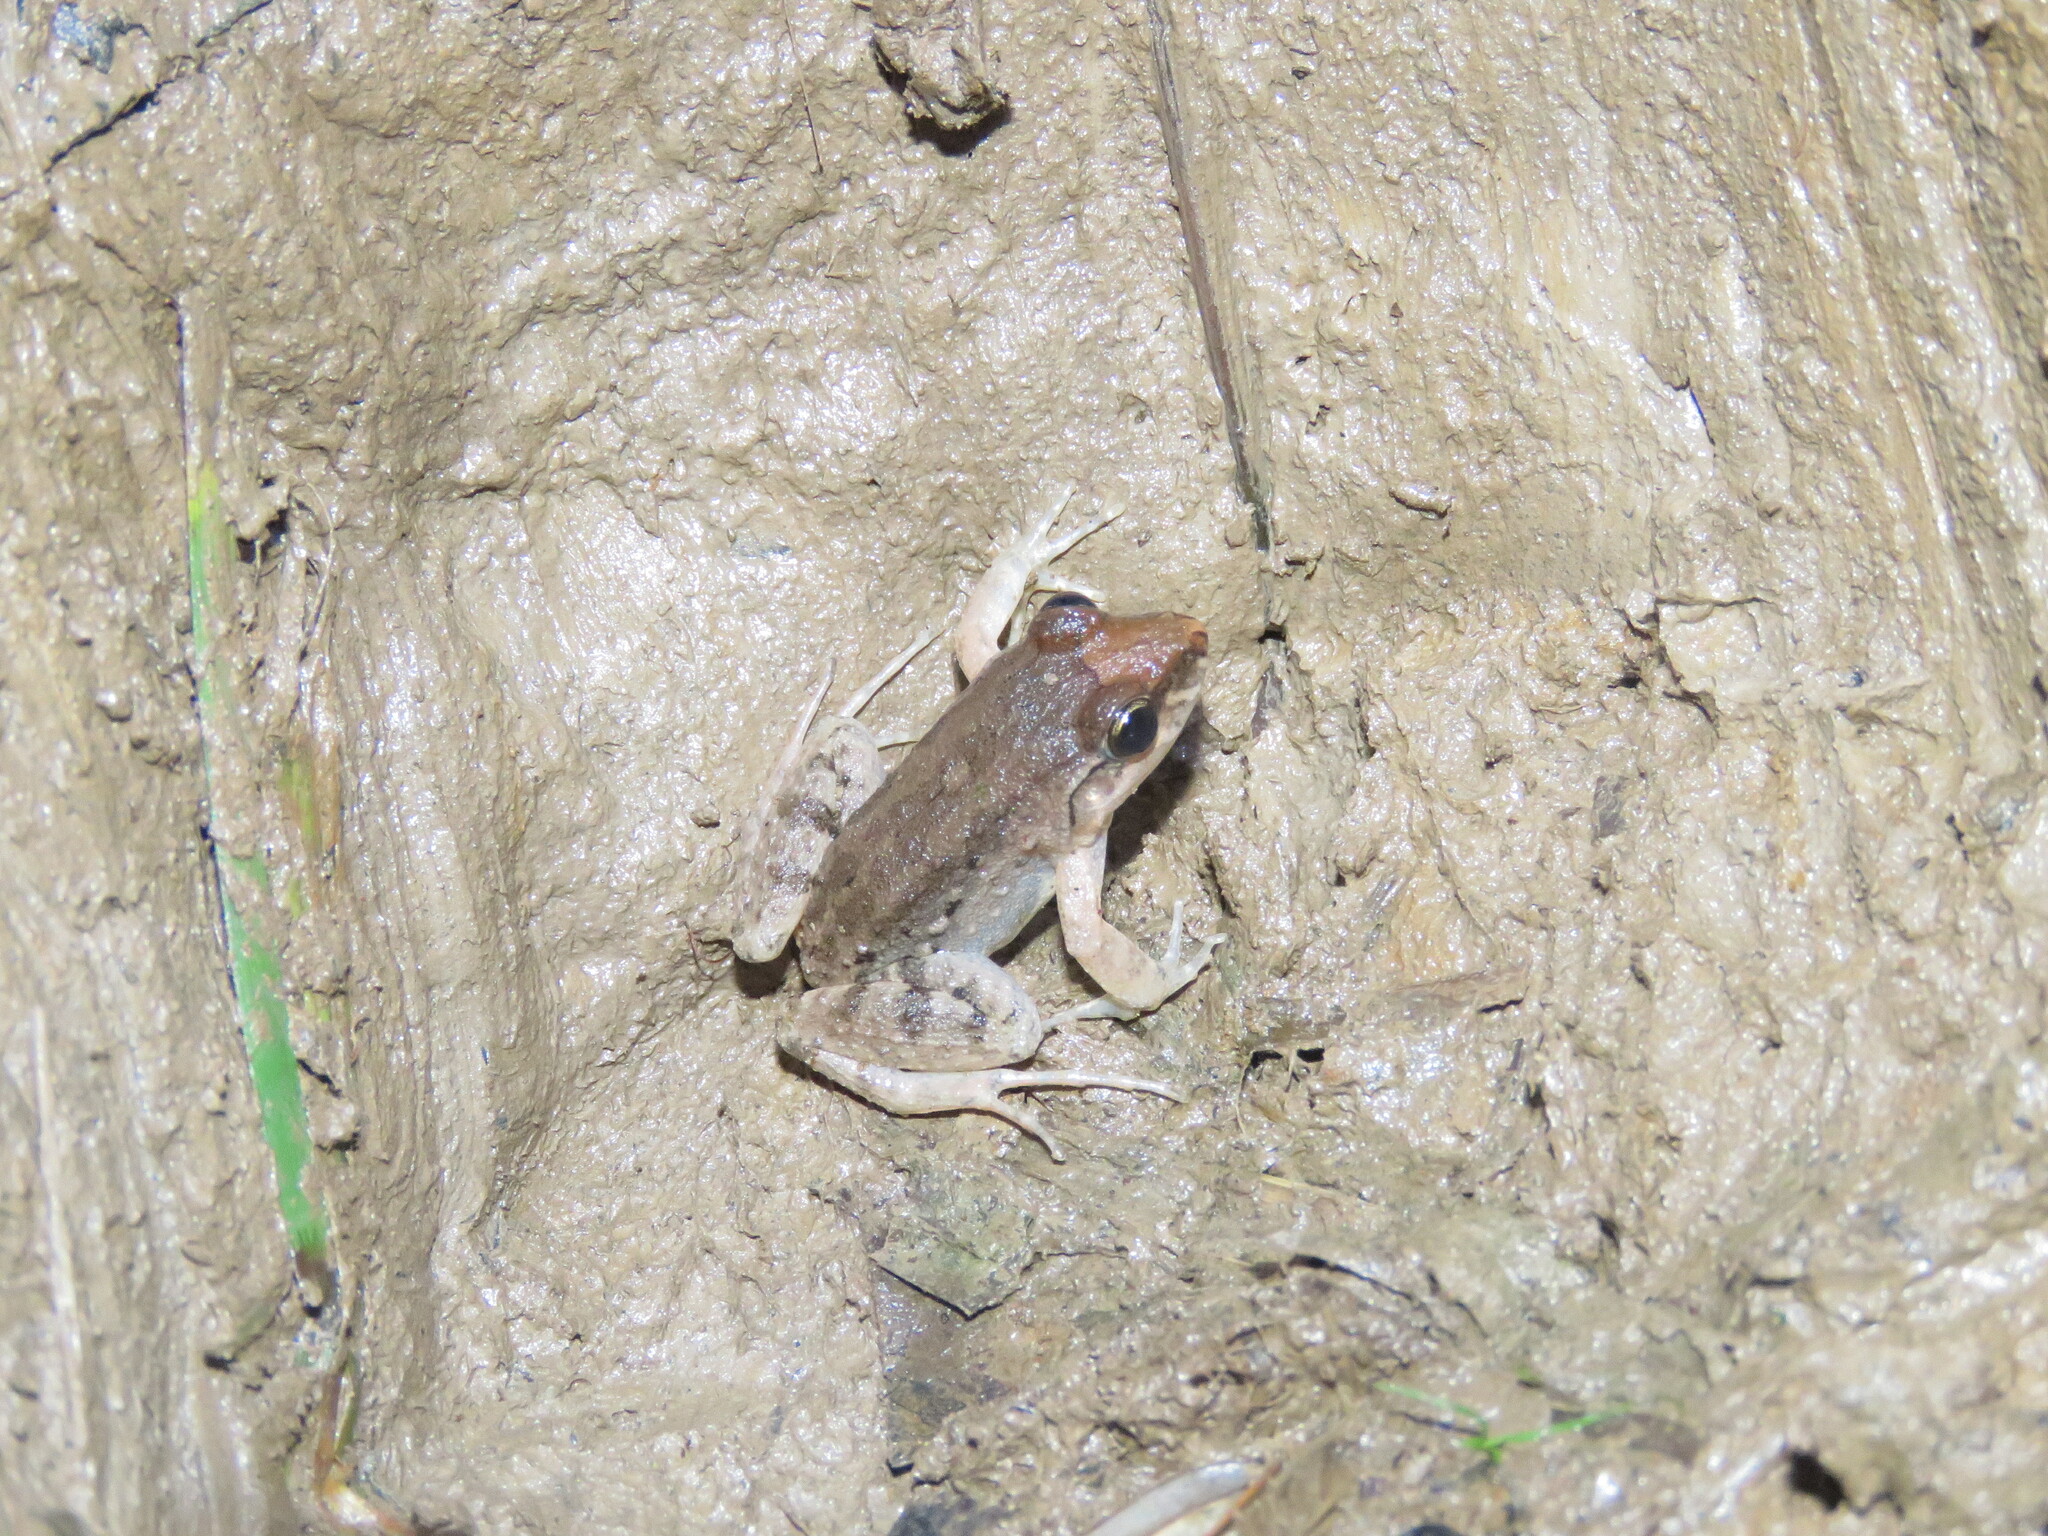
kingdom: Animalia
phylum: Chordata
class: Amphibia
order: Anura
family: Leptodactylidae
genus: Leptodactylus
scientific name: Leptodactylus leptodactyloides
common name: Common thin-toed frog
